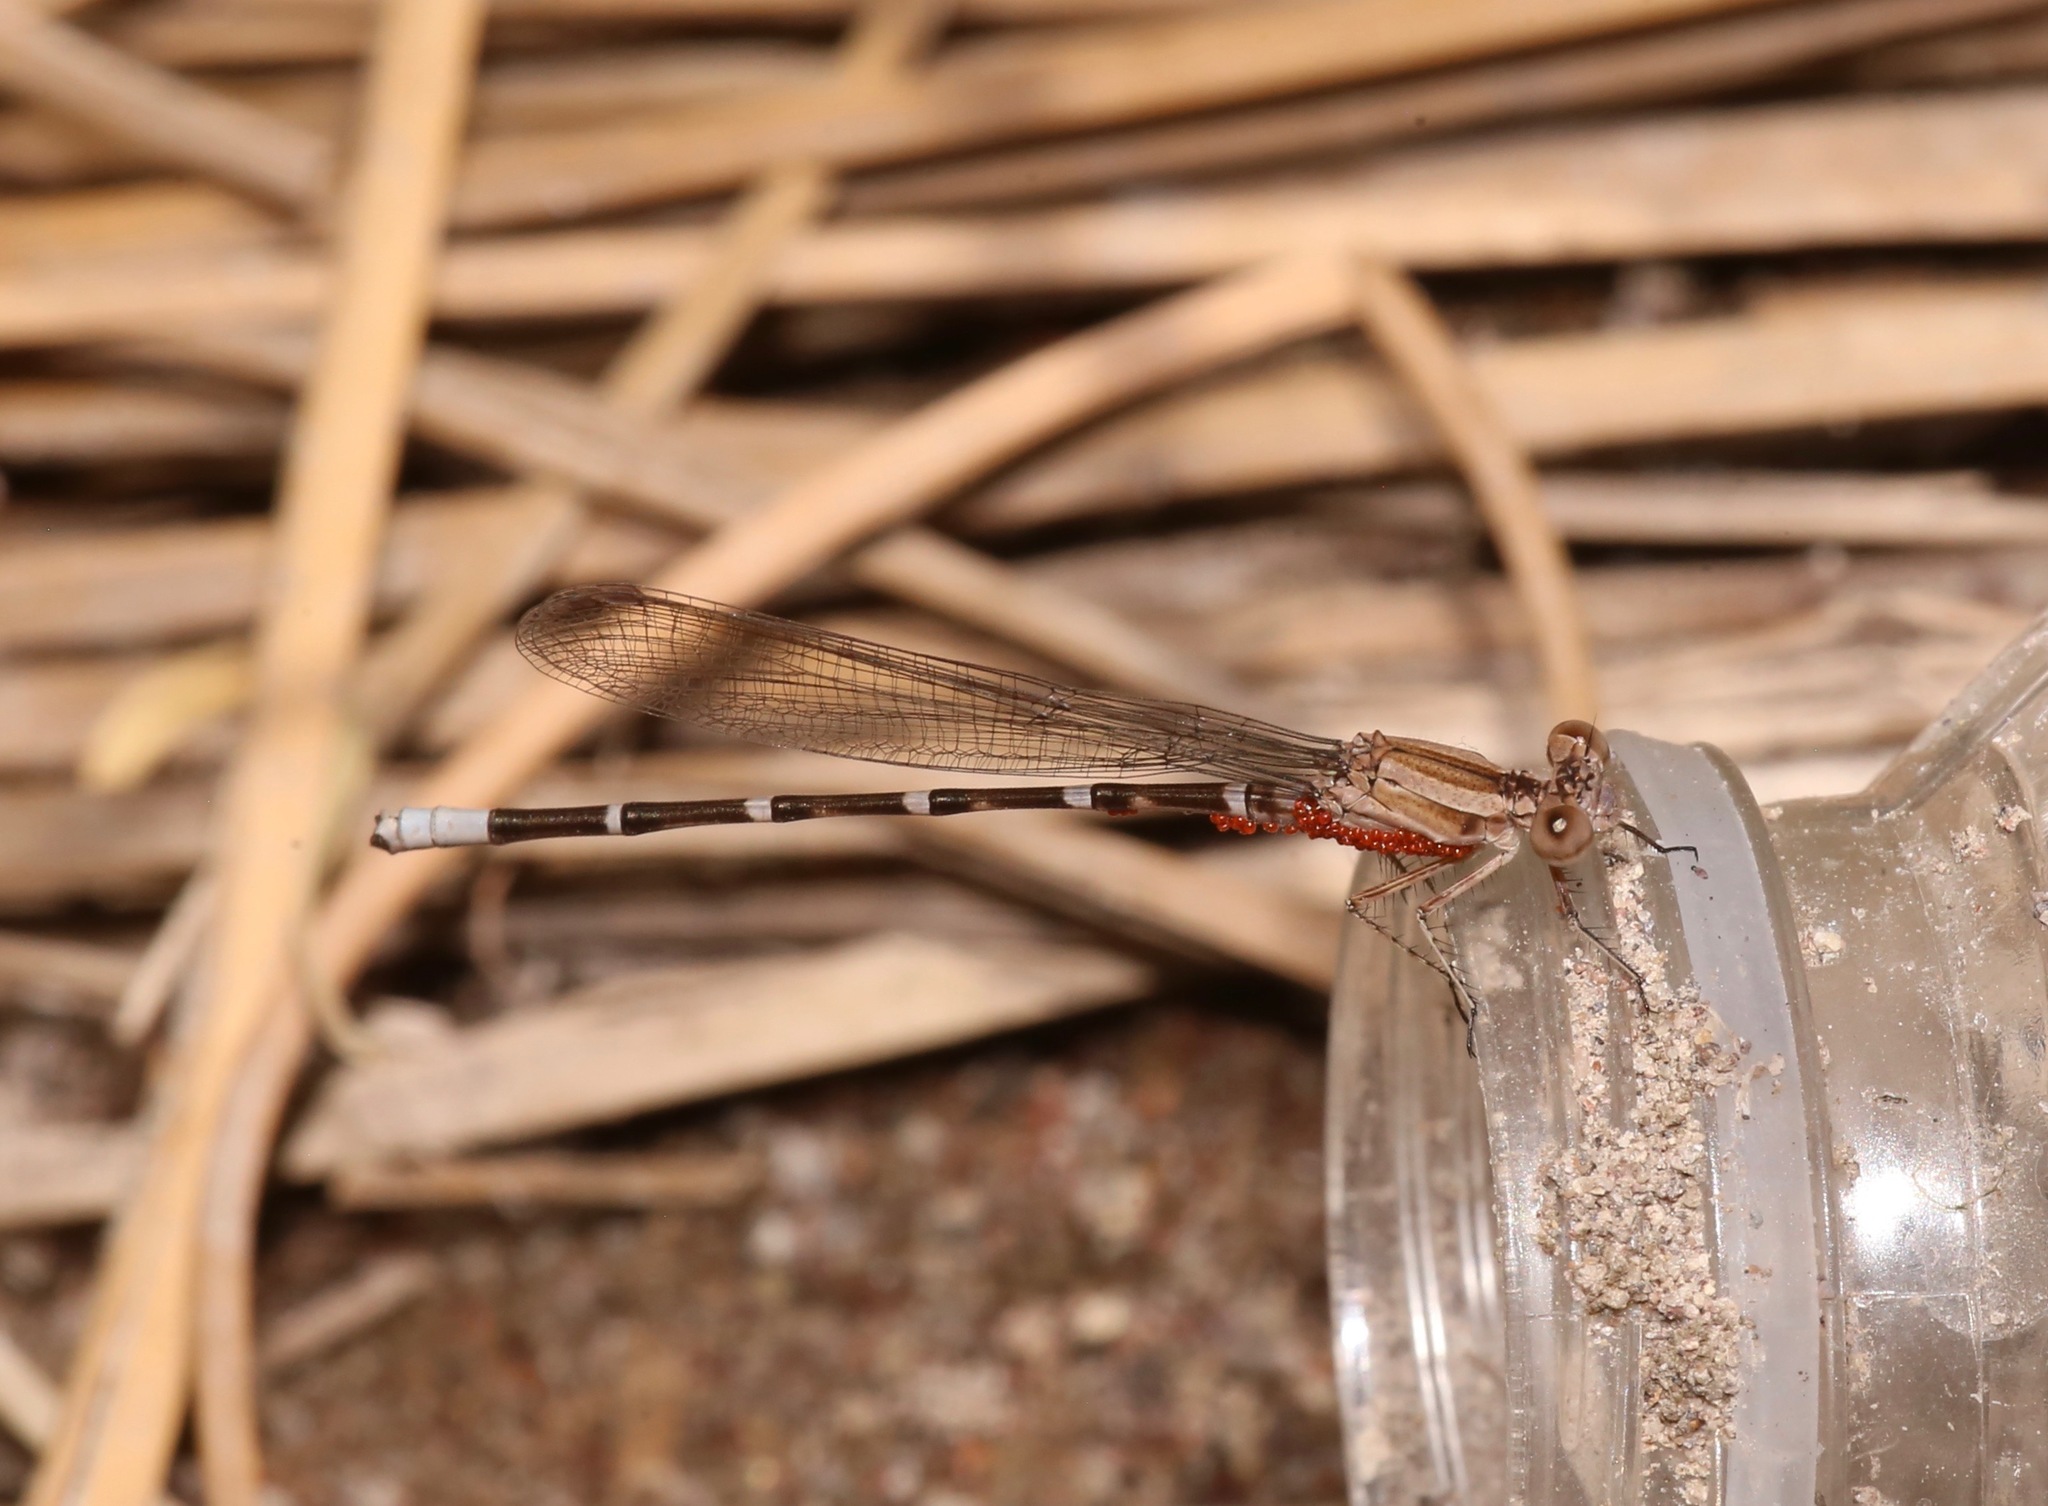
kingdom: Animalia
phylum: Arthropoda
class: Insecta
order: Odonata
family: Coenagrionidae
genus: Argia
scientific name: Argia sedula
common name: Blue-ringed dancer
